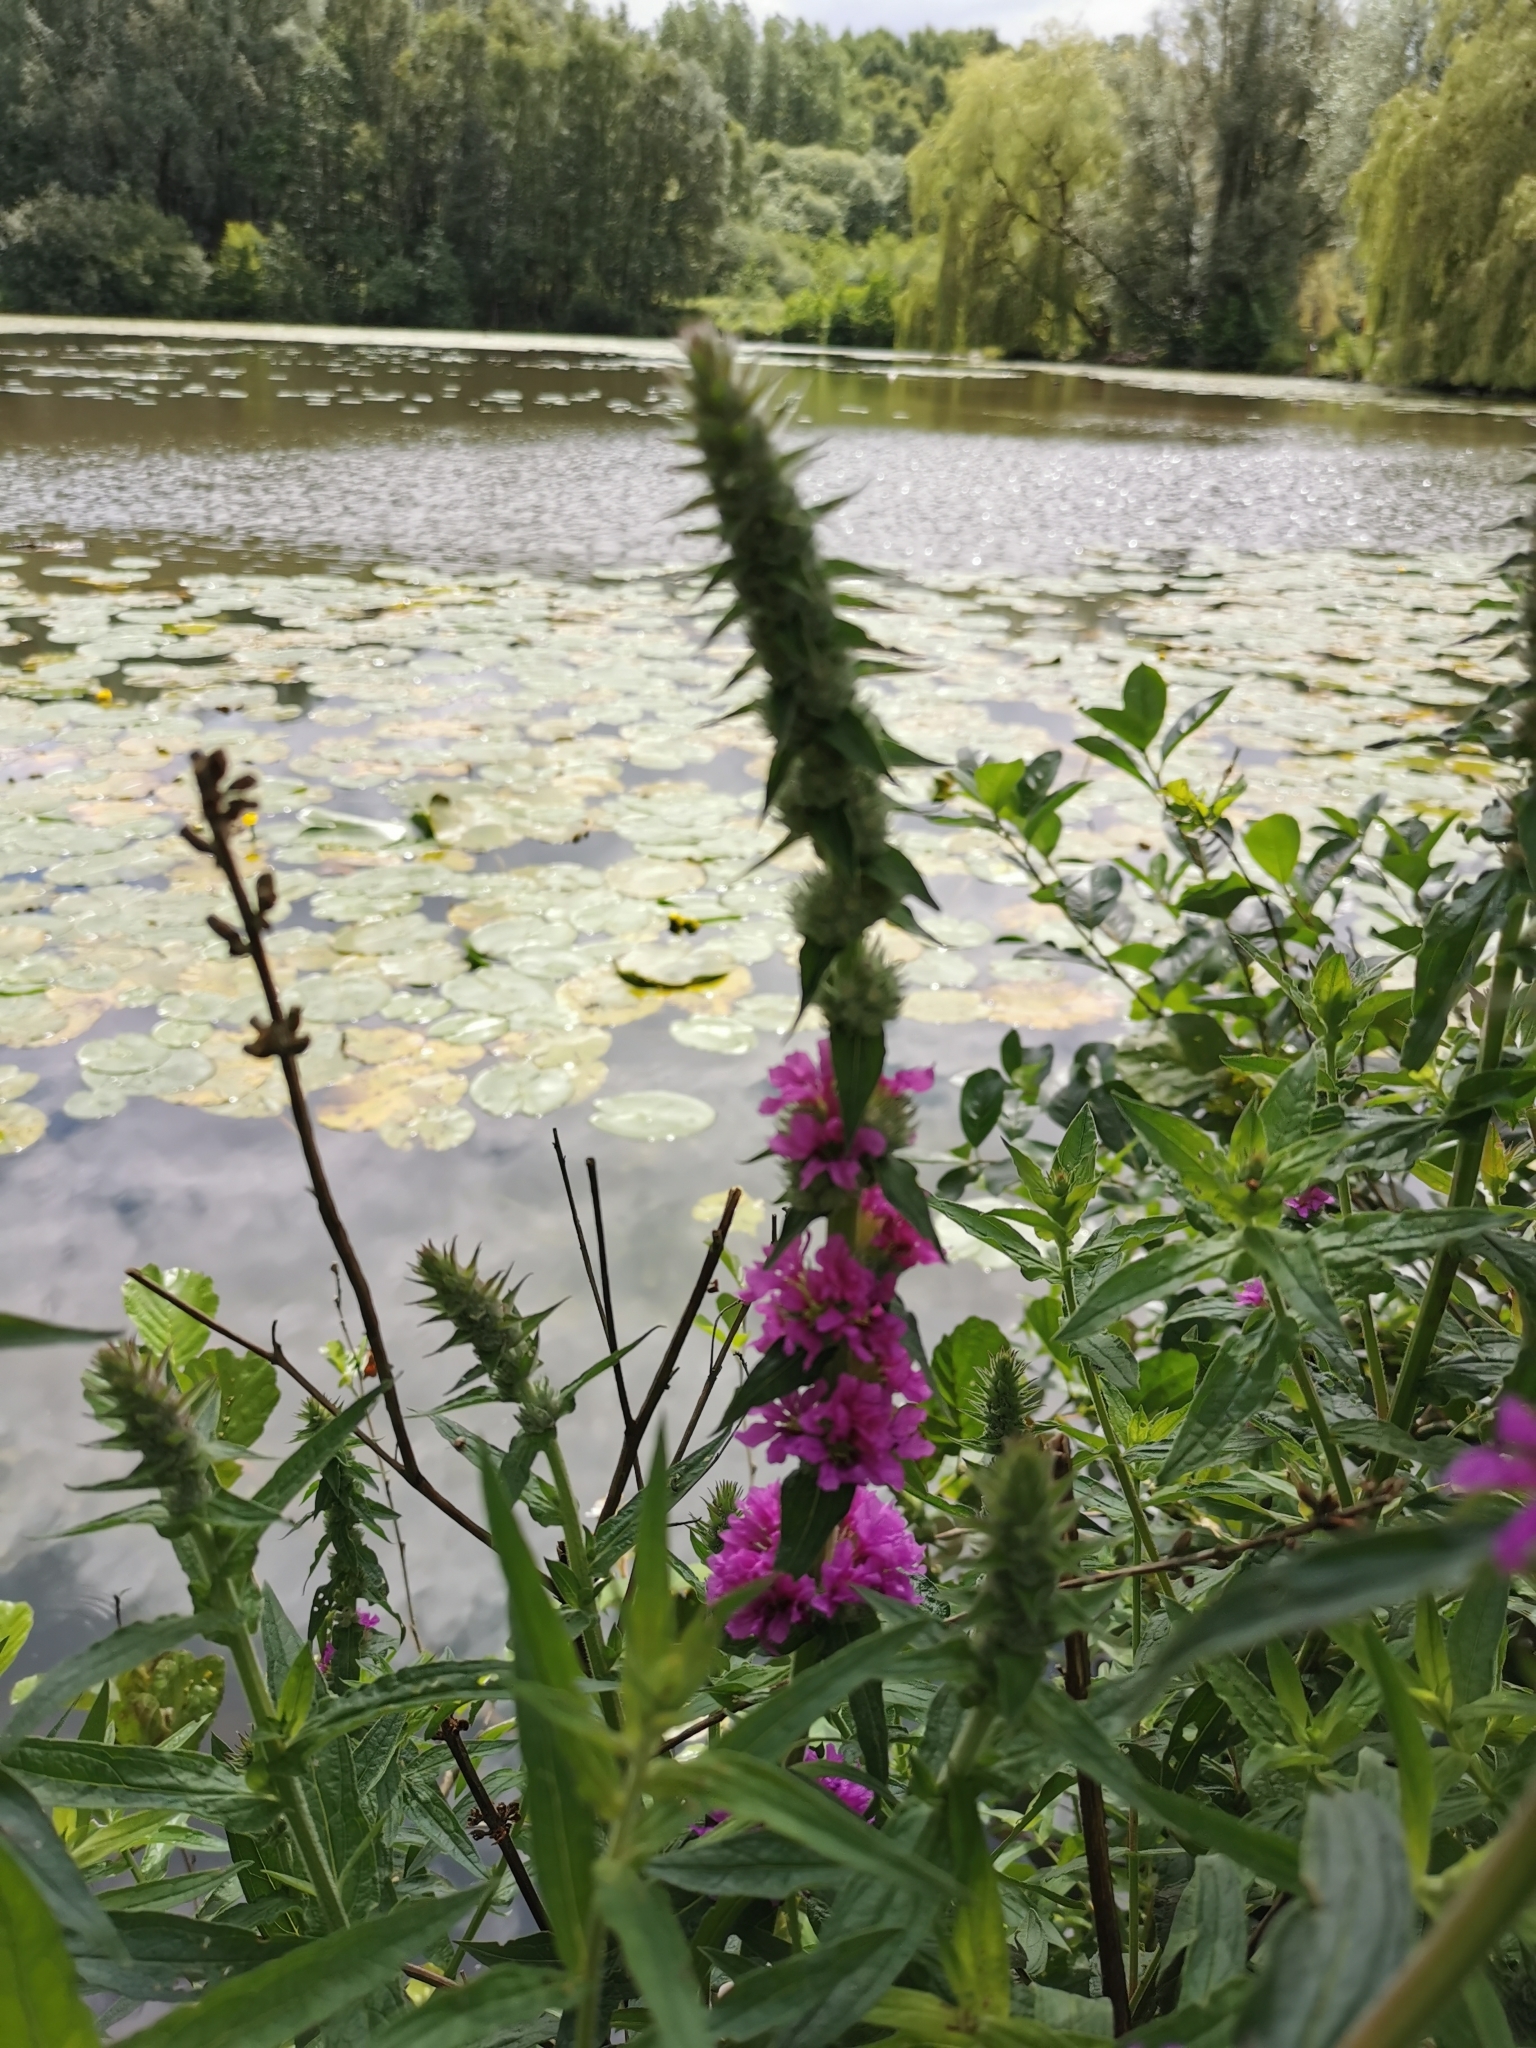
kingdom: Plantae
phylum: Tracheophyta
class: Magnoliopsida
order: Myrtales
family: Lythraceae
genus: Lythrum
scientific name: Lythrum salicaria
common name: Purple loosestrife
